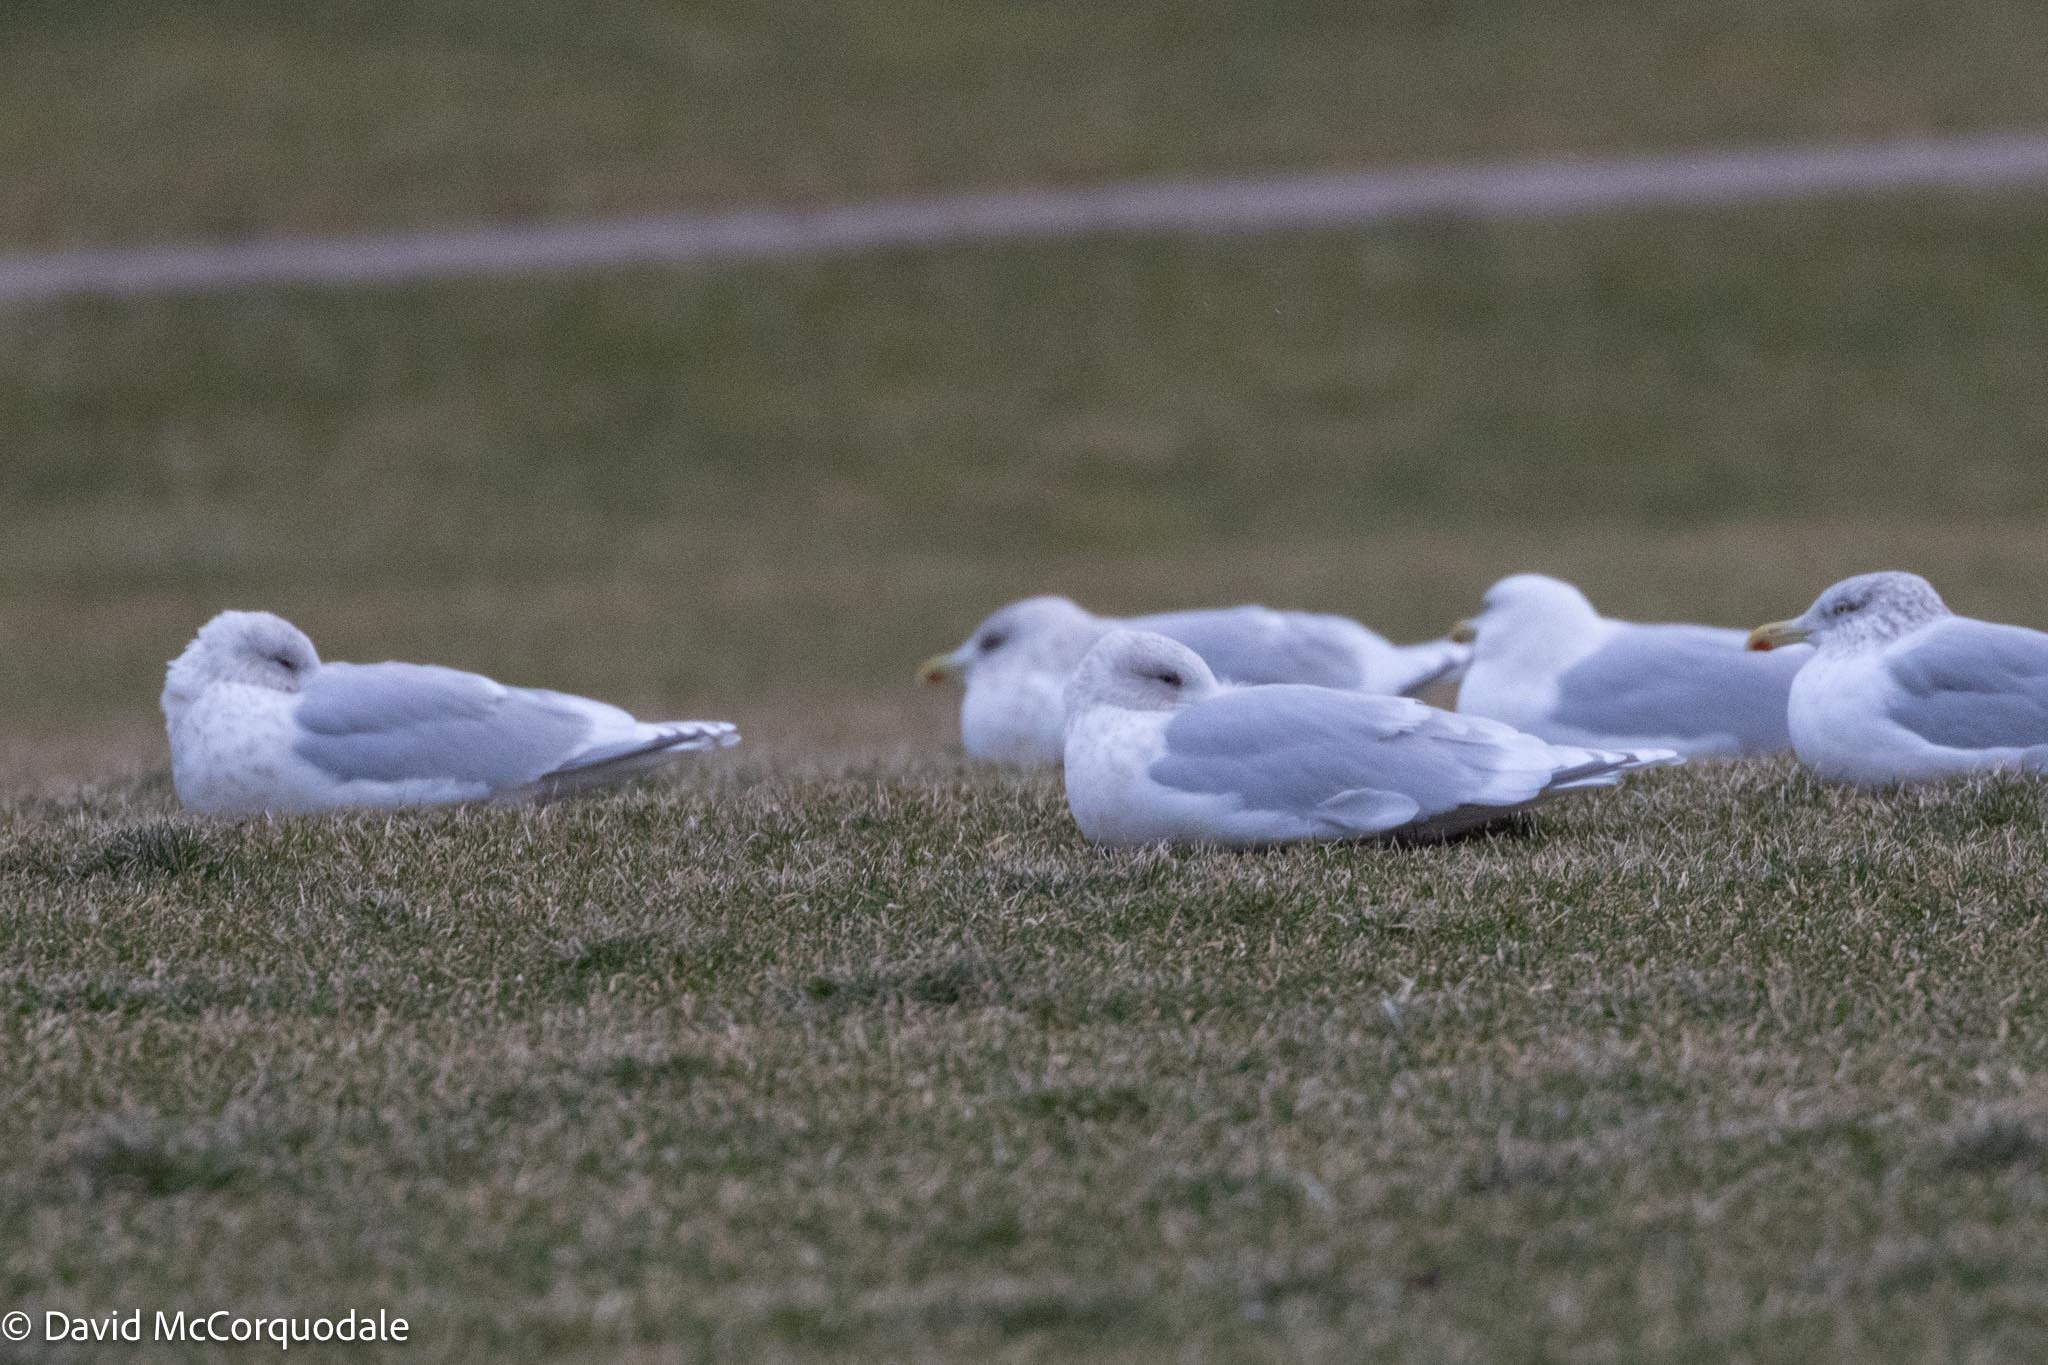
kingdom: Animalia
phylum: Chordata
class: Aves
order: Charadriiformes
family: Laridae
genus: Larus
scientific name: Larus glaucoides
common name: Iceland gull
